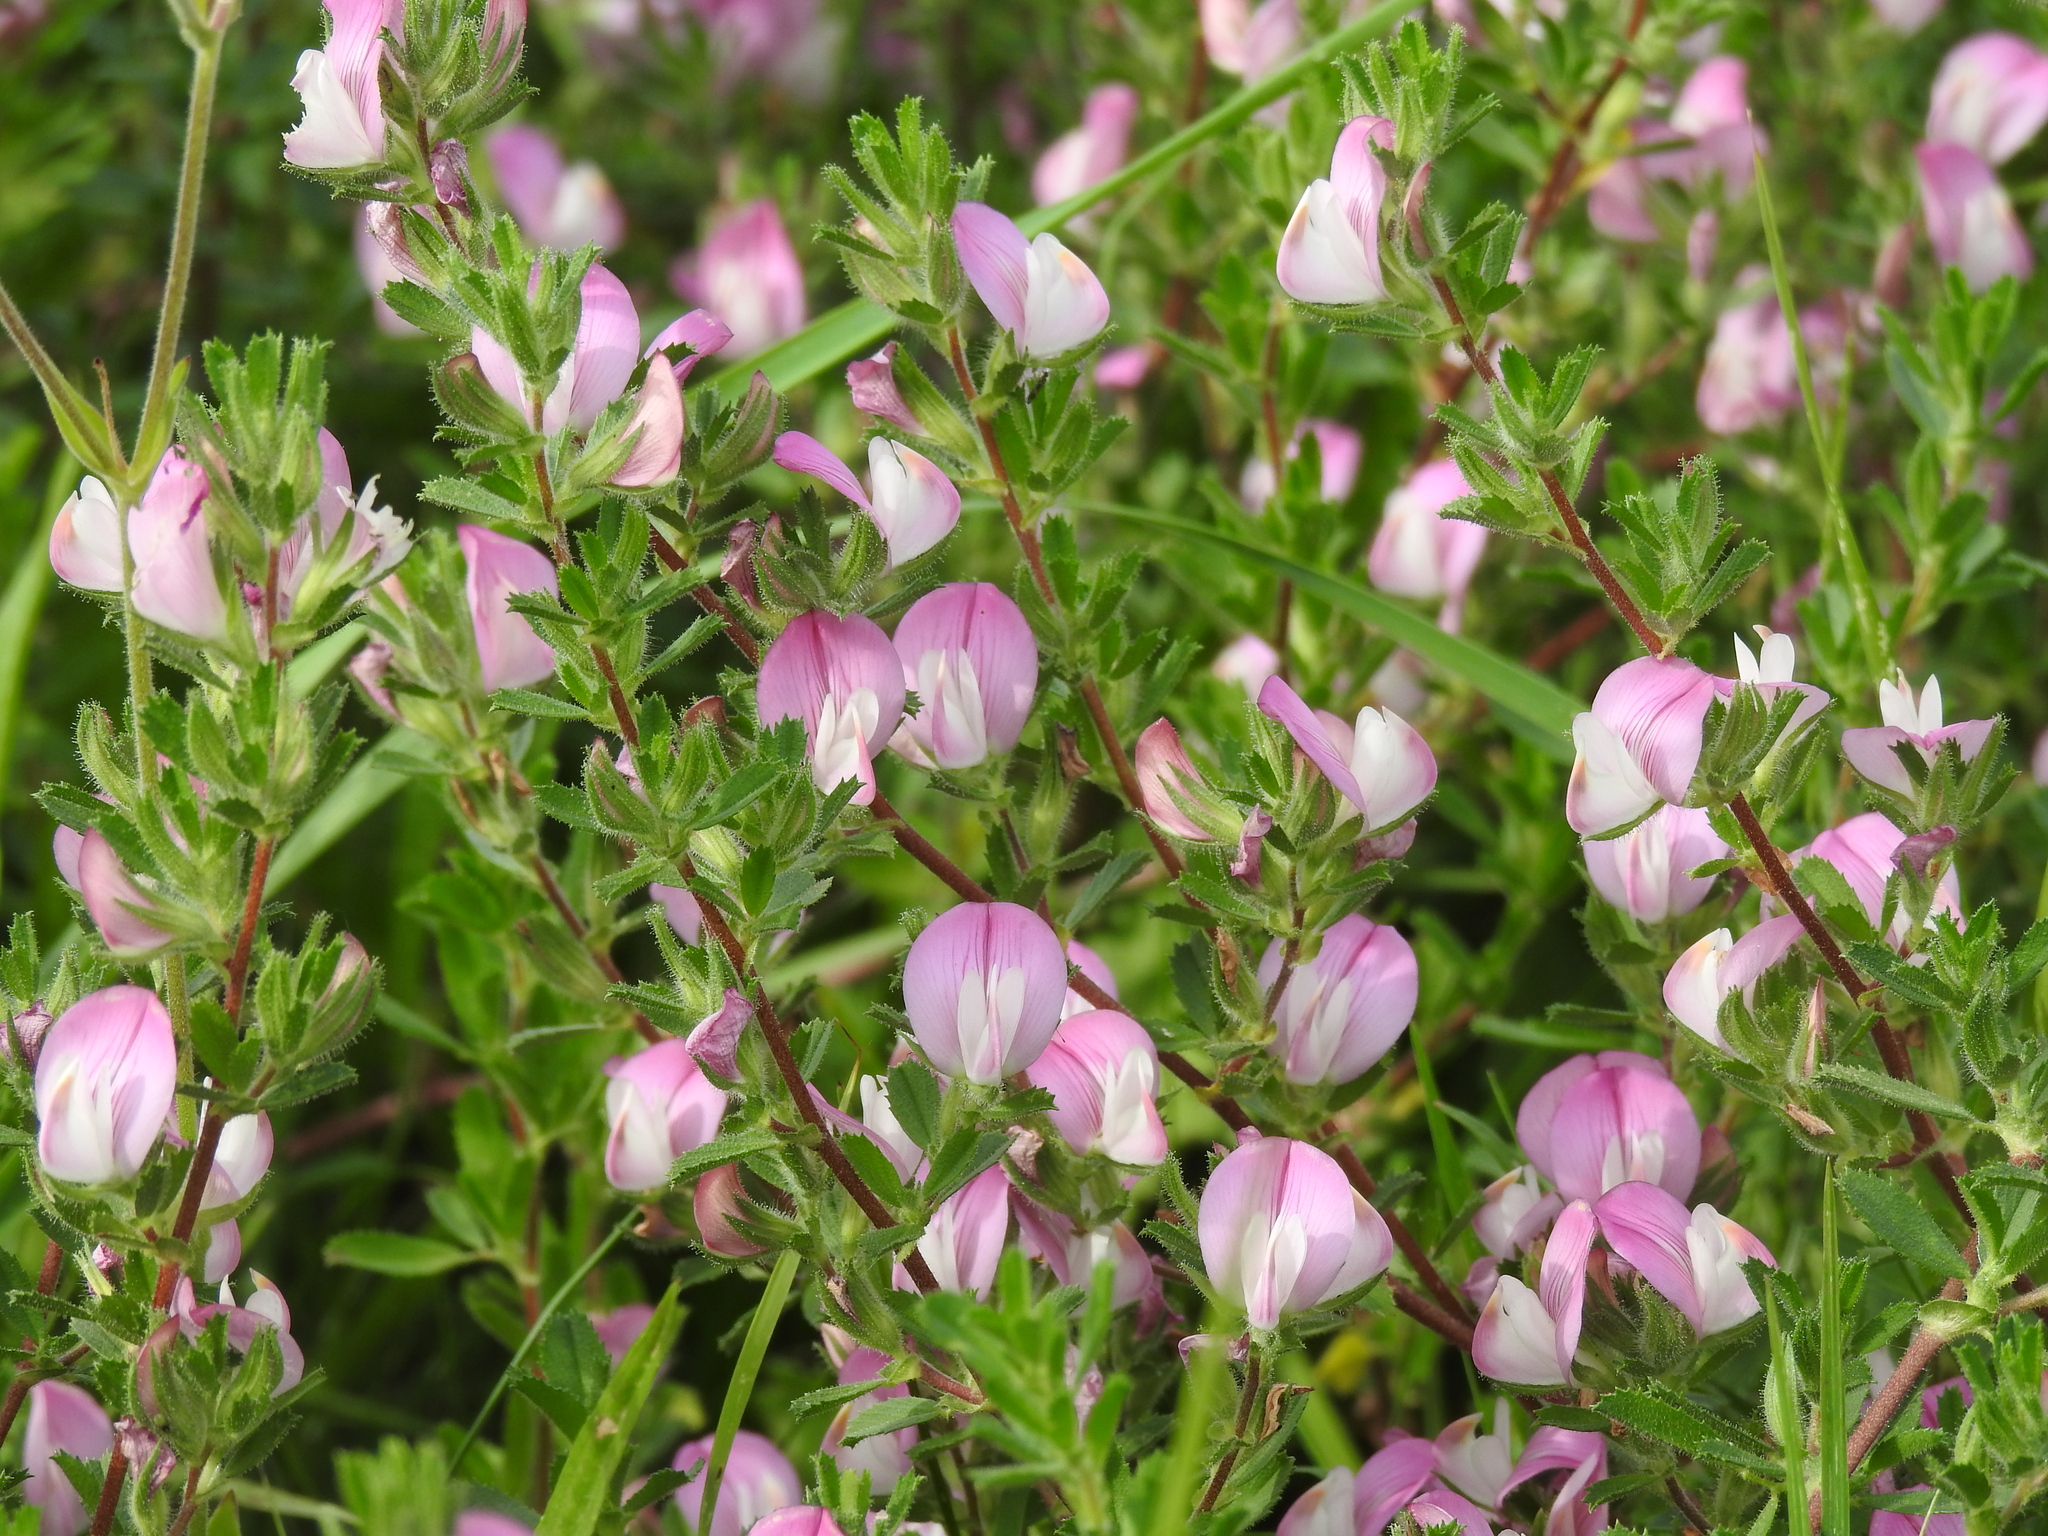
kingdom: Plantae
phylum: Tracheophyta
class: Magnoliopsida
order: Fabales
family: Fabaceae
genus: Ononis
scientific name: Ononis spinosa
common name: Spiny restharrow
